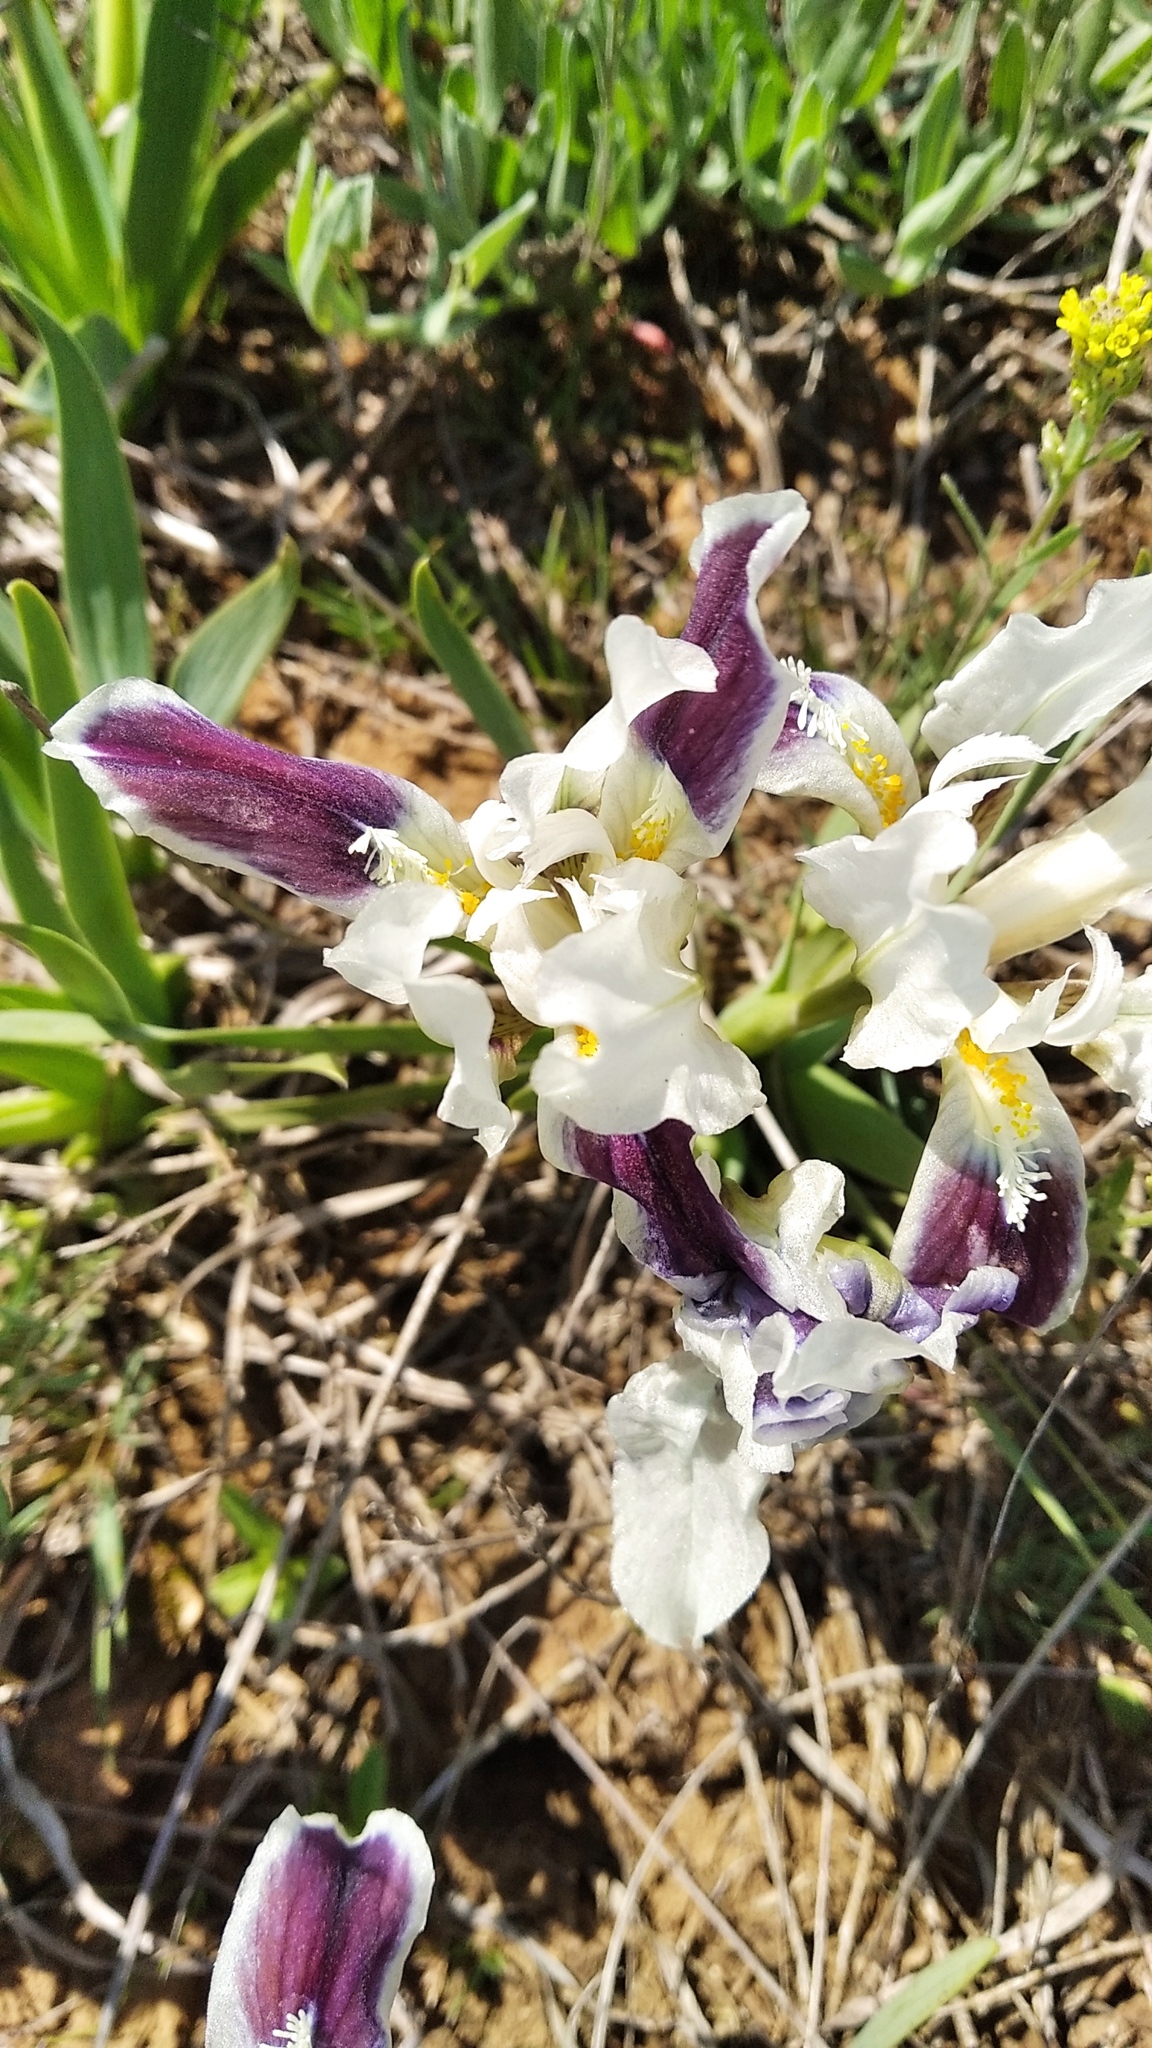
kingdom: Plantae
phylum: Tracheophyta
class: Liliopsida
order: Asparagales
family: Iridaceae
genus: Iris
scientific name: Iris pumila
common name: Dwarf iris
